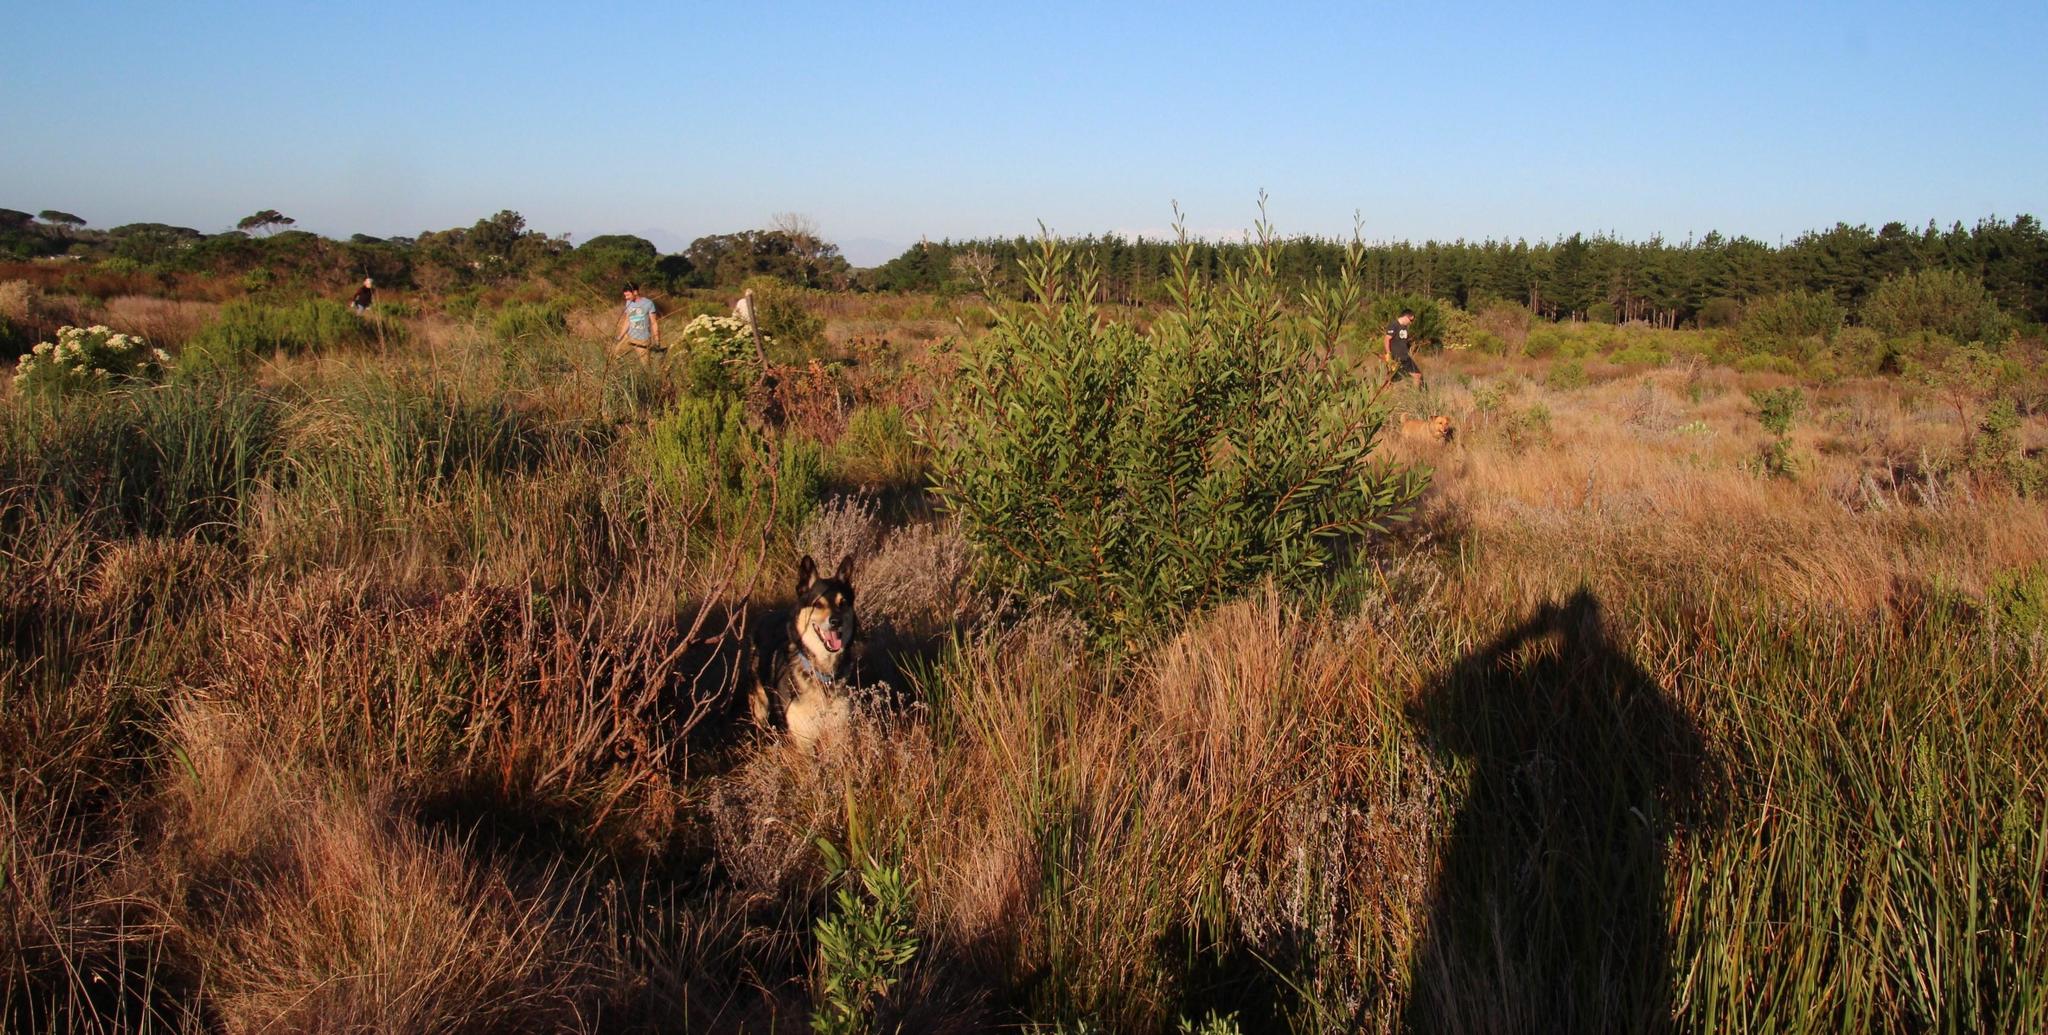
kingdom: Plantae
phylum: Tracheophyta
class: Magnoliopsida
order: Fabales
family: Fabaceae
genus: Acacia
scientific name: Acacia longifolia
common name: Sydney golden wattle
